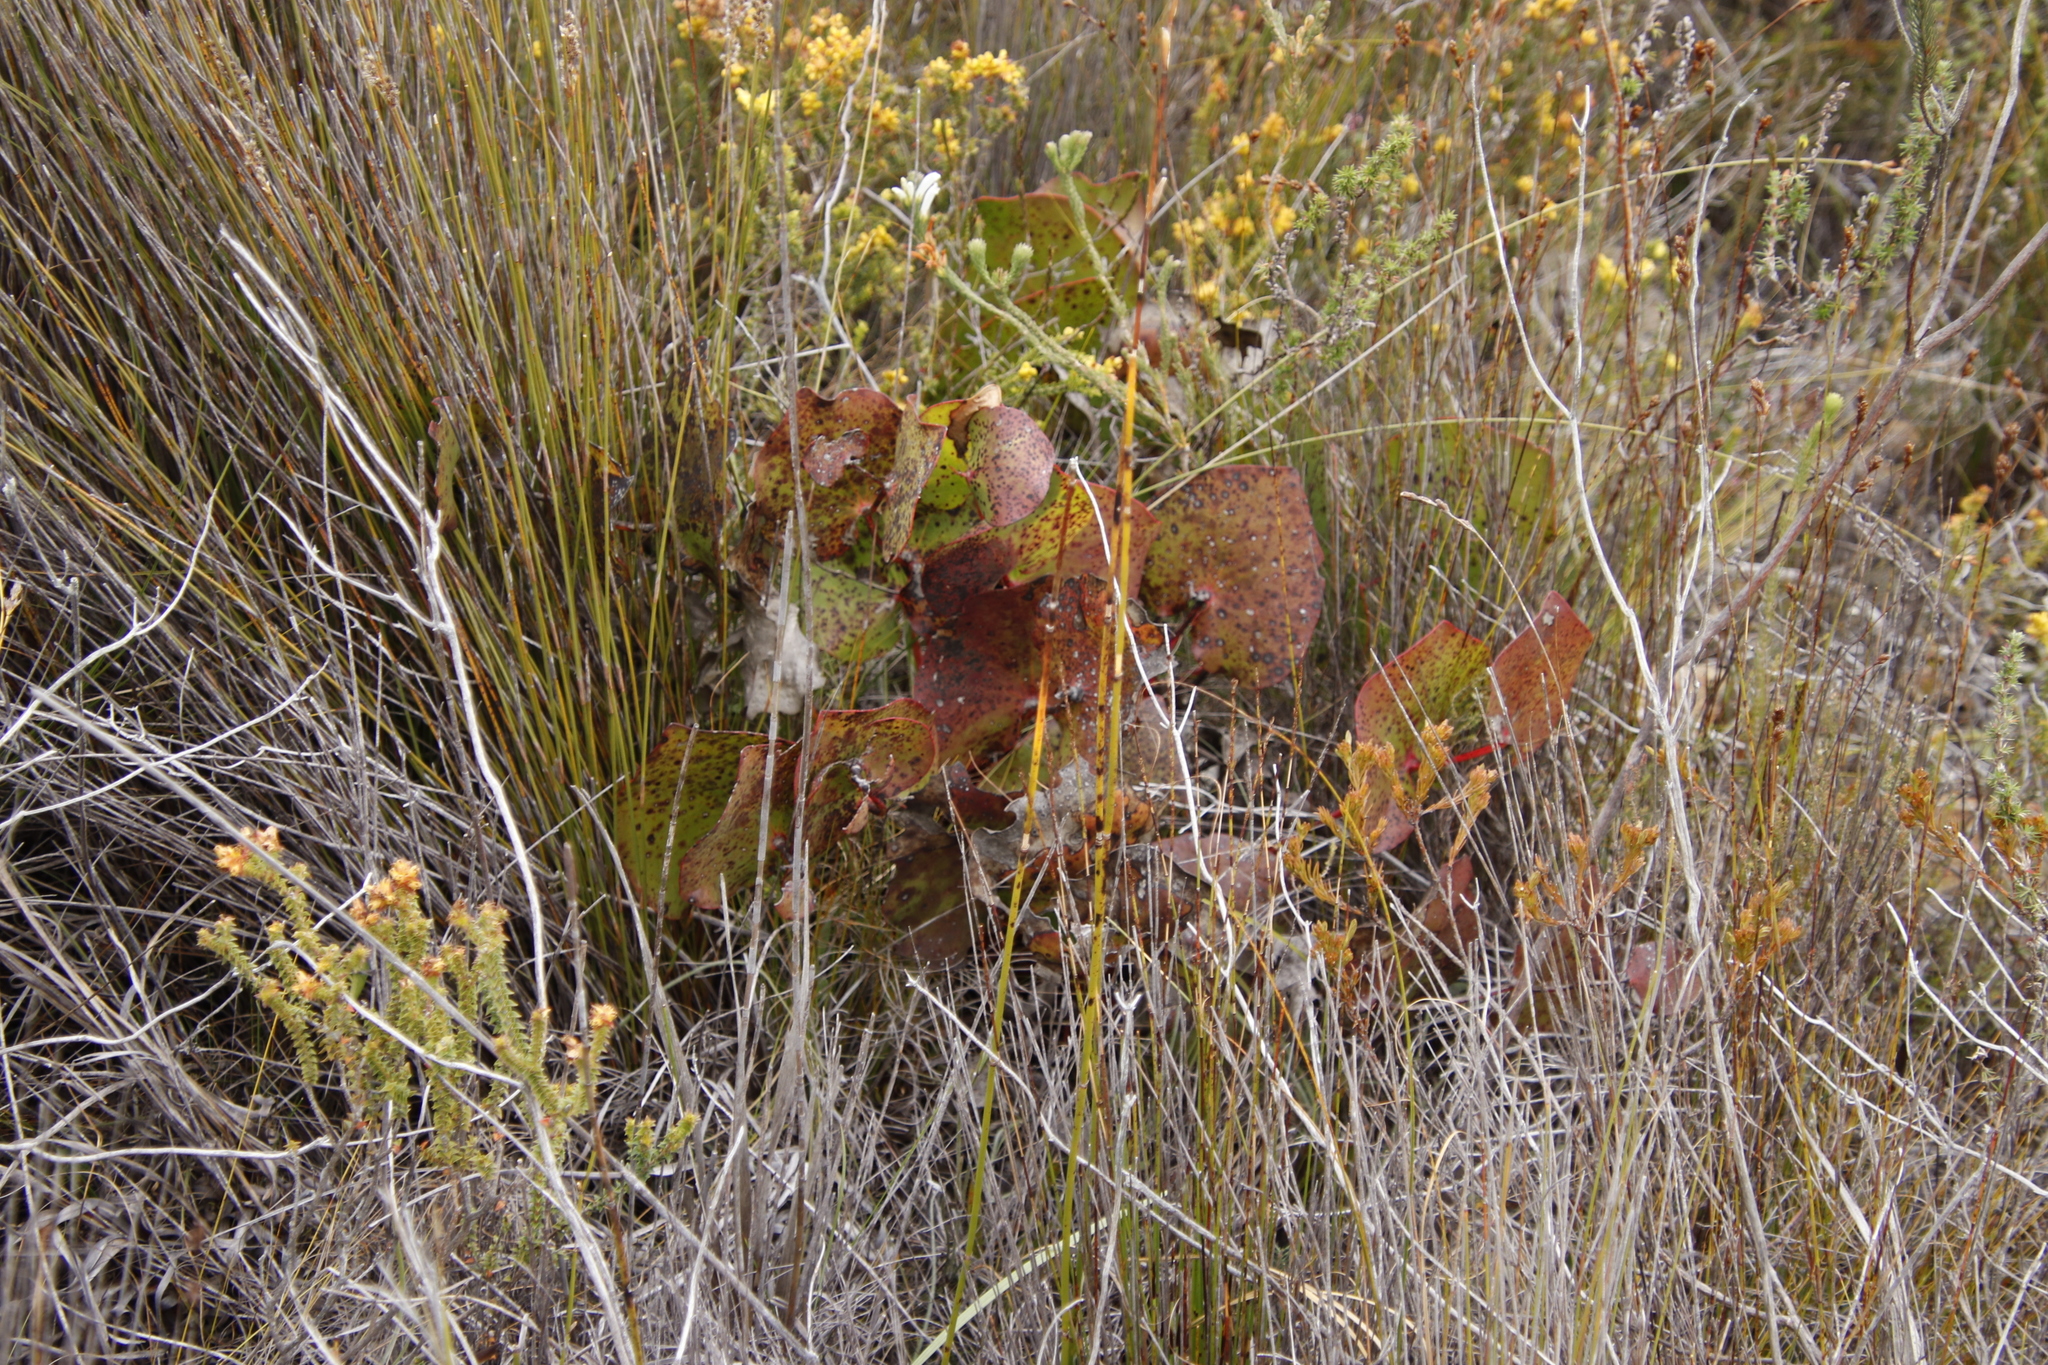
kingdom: Plantae
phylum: Tracheophyta
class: Magnoliopsida
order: Proteales
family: Proteaceae
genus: Protea
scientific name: Protea cordata
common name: Heart-leaf sugarbush
